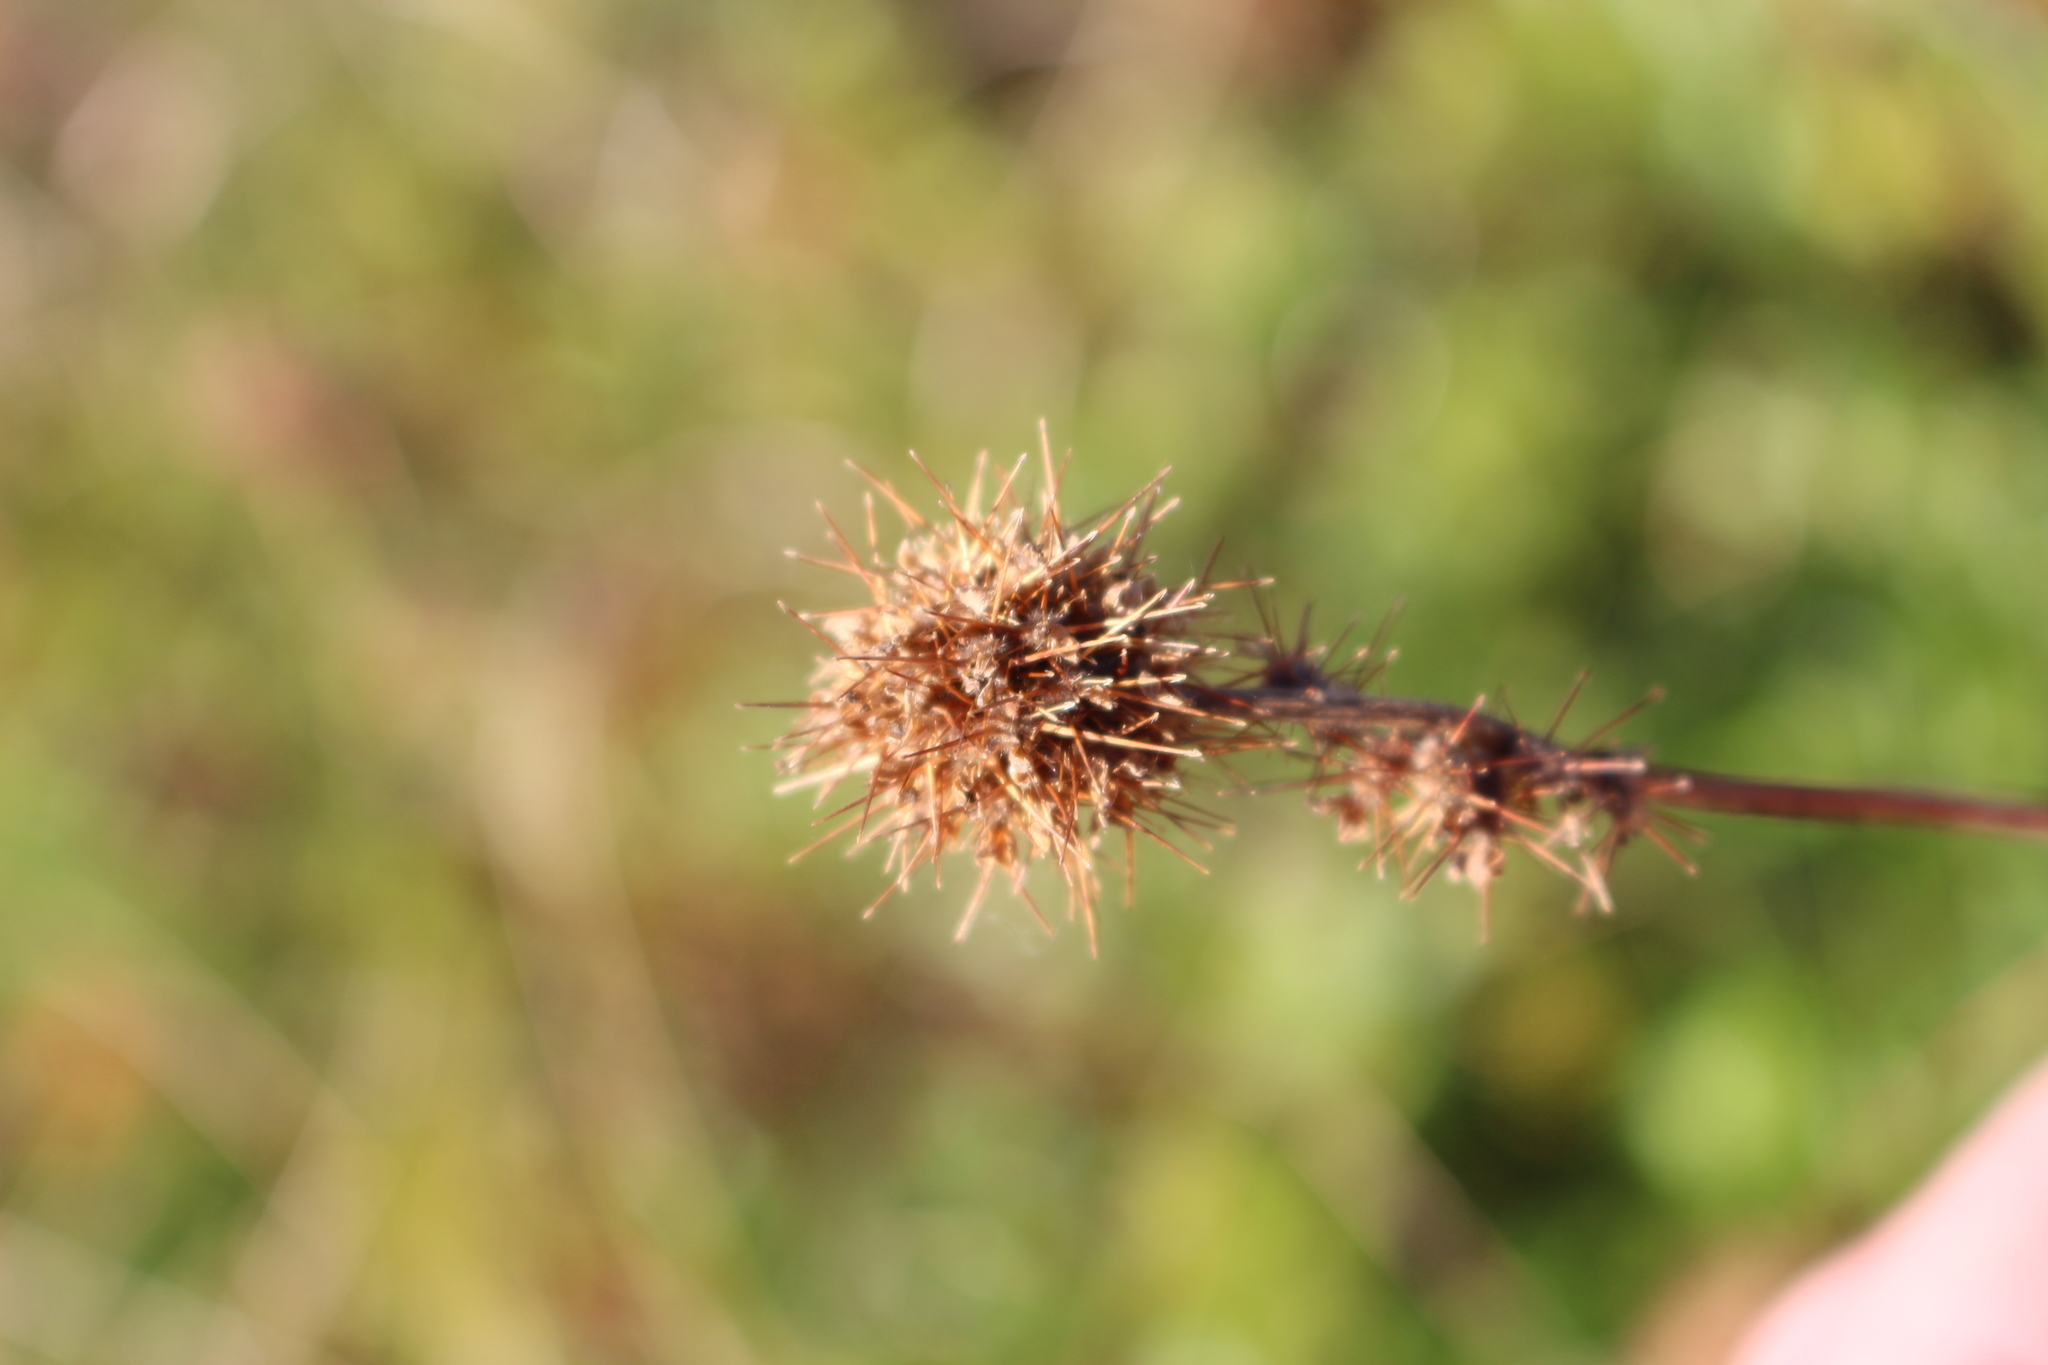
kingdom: Plantae
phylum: Tracheophyta
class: Magnoliopsida
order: Rosales
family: Rosaceae
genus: Acaena
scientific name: Acaena novae-zelandiae
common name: Pirri-pirri-bur
